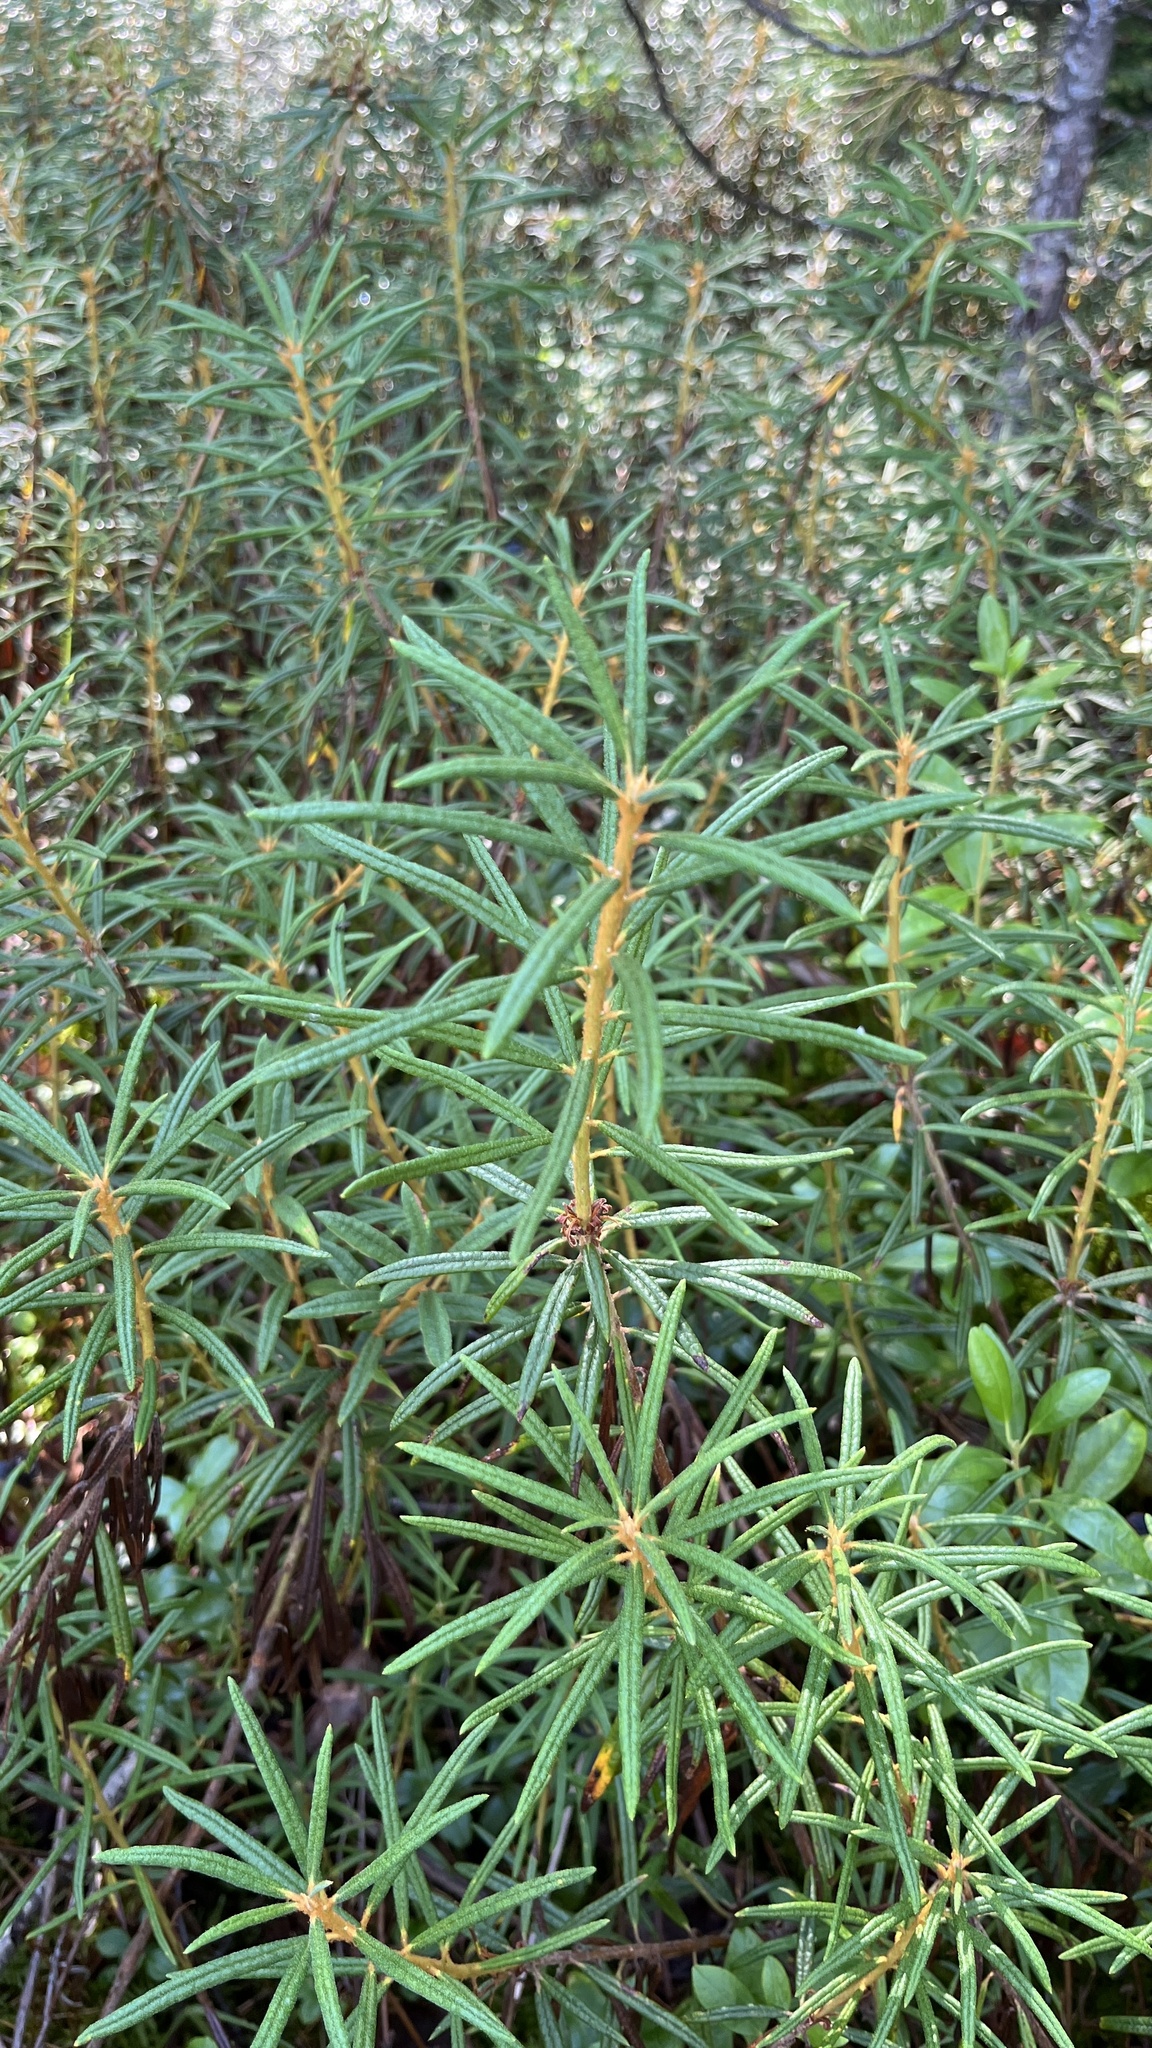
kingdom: Plantae
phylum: Tracheophyta
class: Magnoliopsida
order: Ericales
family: Ericaceae
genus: Rhododendron
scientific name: Rhododendron tomentosum
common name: Marsh labrador tea
